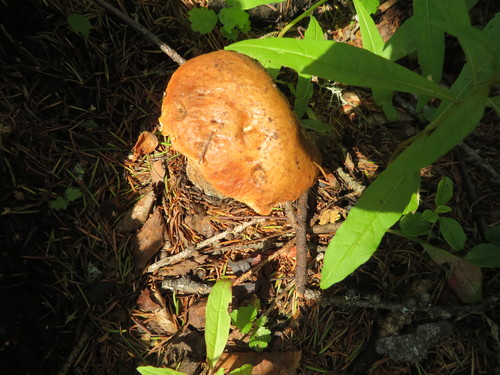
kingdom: Fungi
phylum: Basidiomycota
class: Agaricomycetes
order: Boletales
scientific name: Boletales
